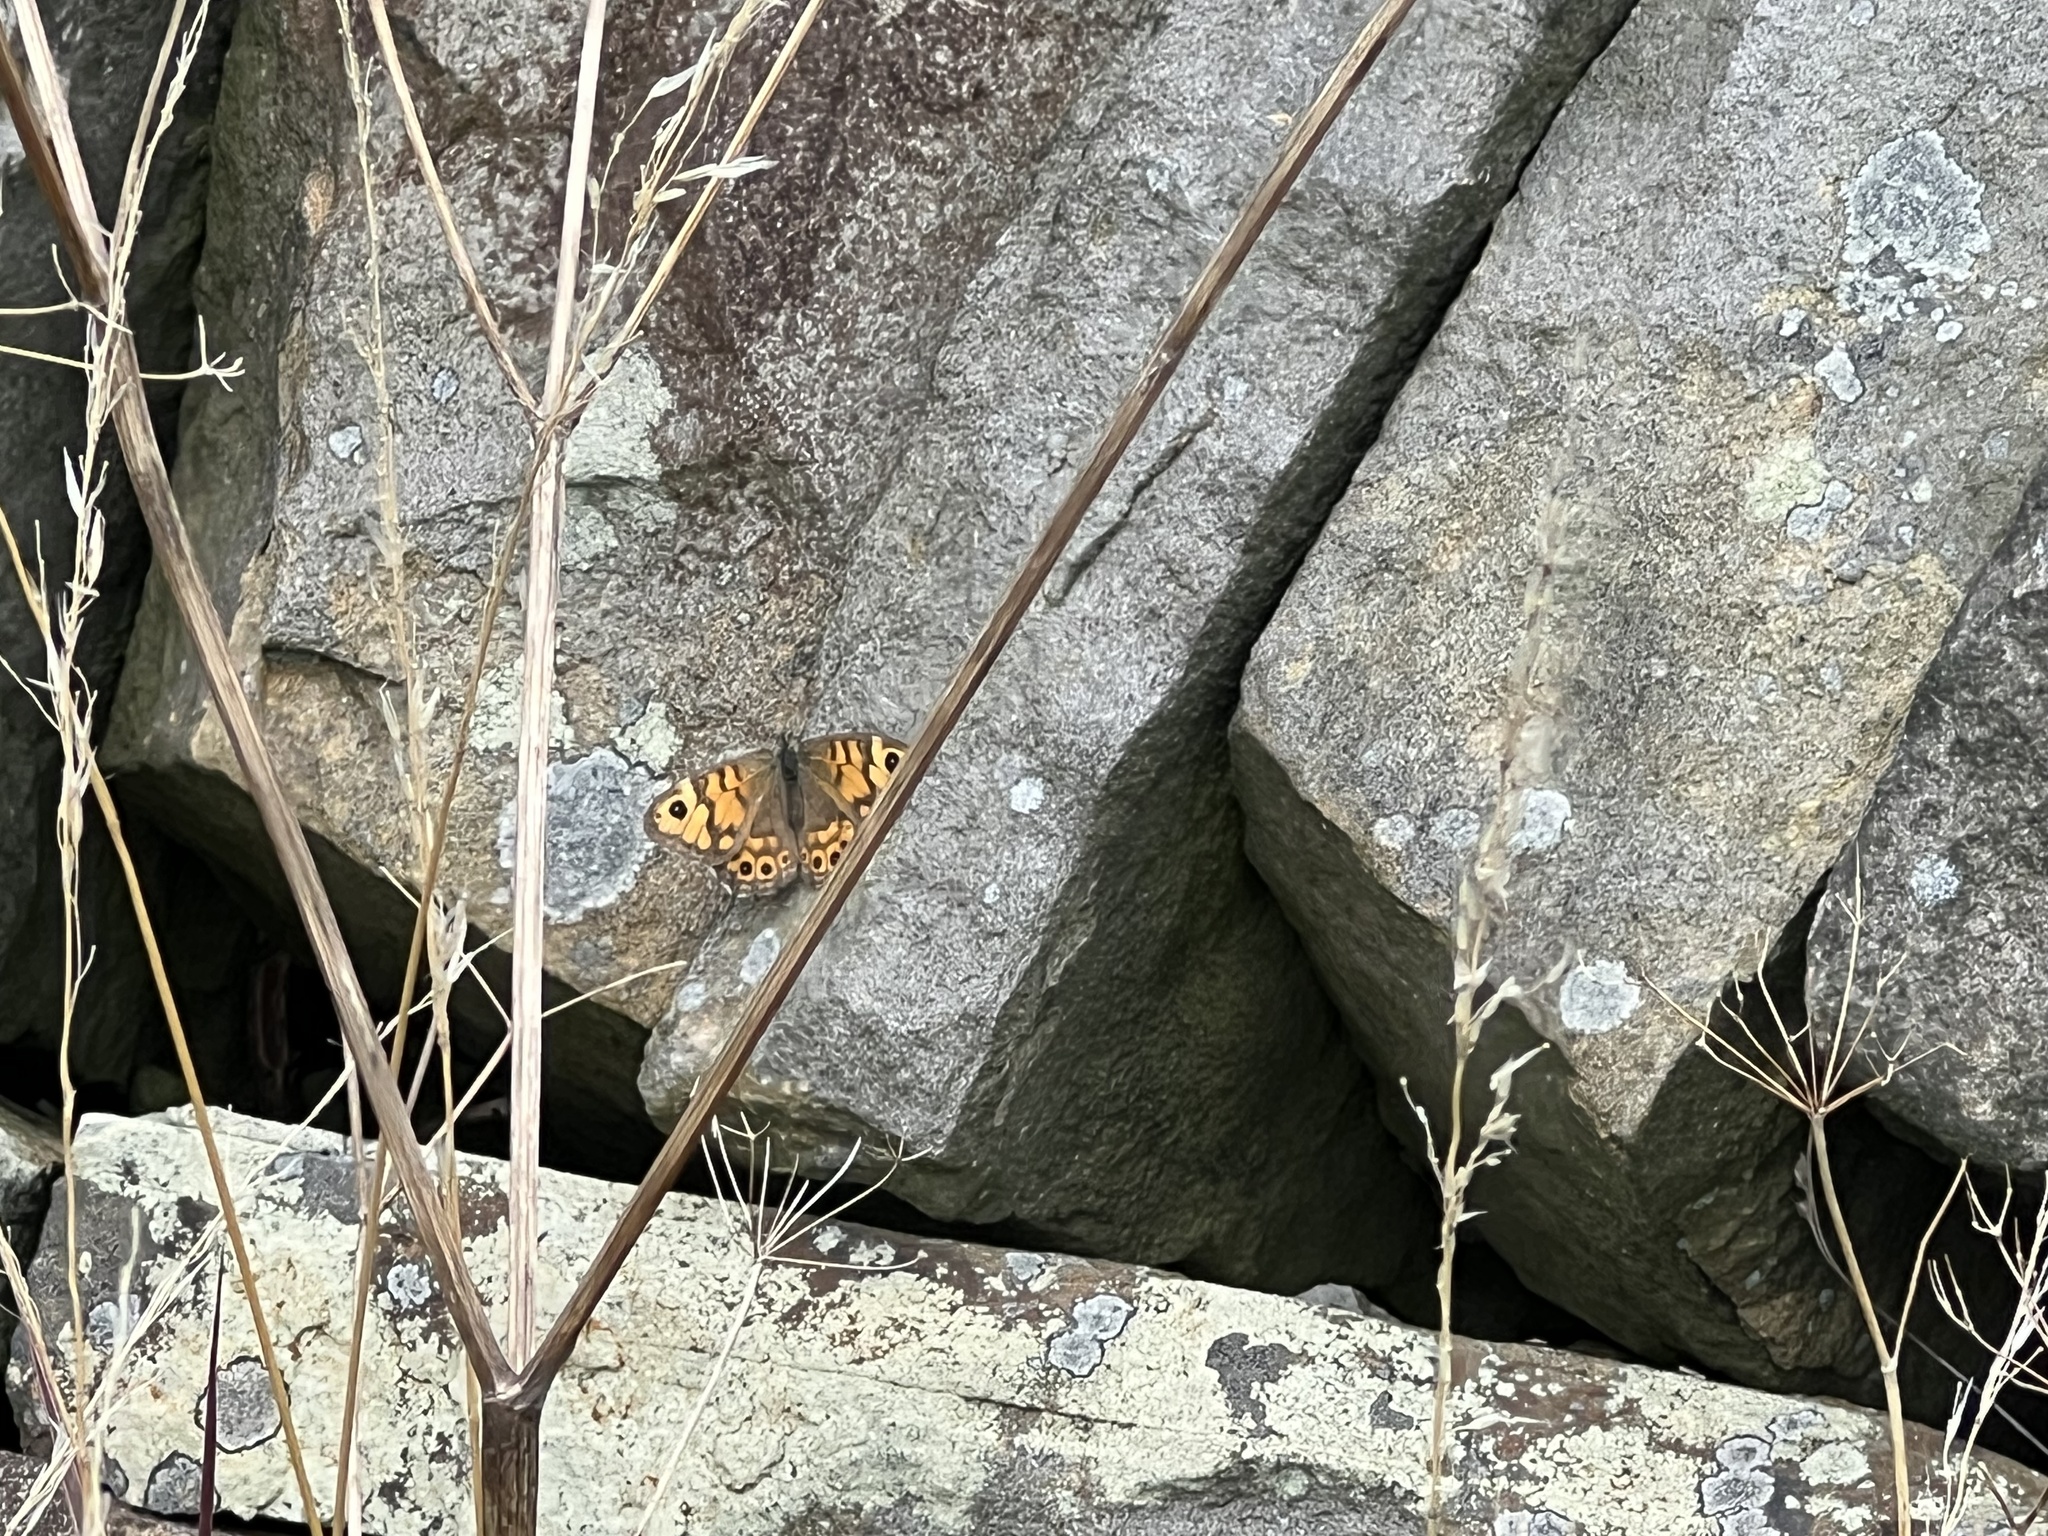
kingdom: Animalia
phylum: Arthropoda
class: Insecta
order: Lepidoptera
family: Nymphalidae
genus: Pararge
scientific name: Pararge Lasiommata megera
